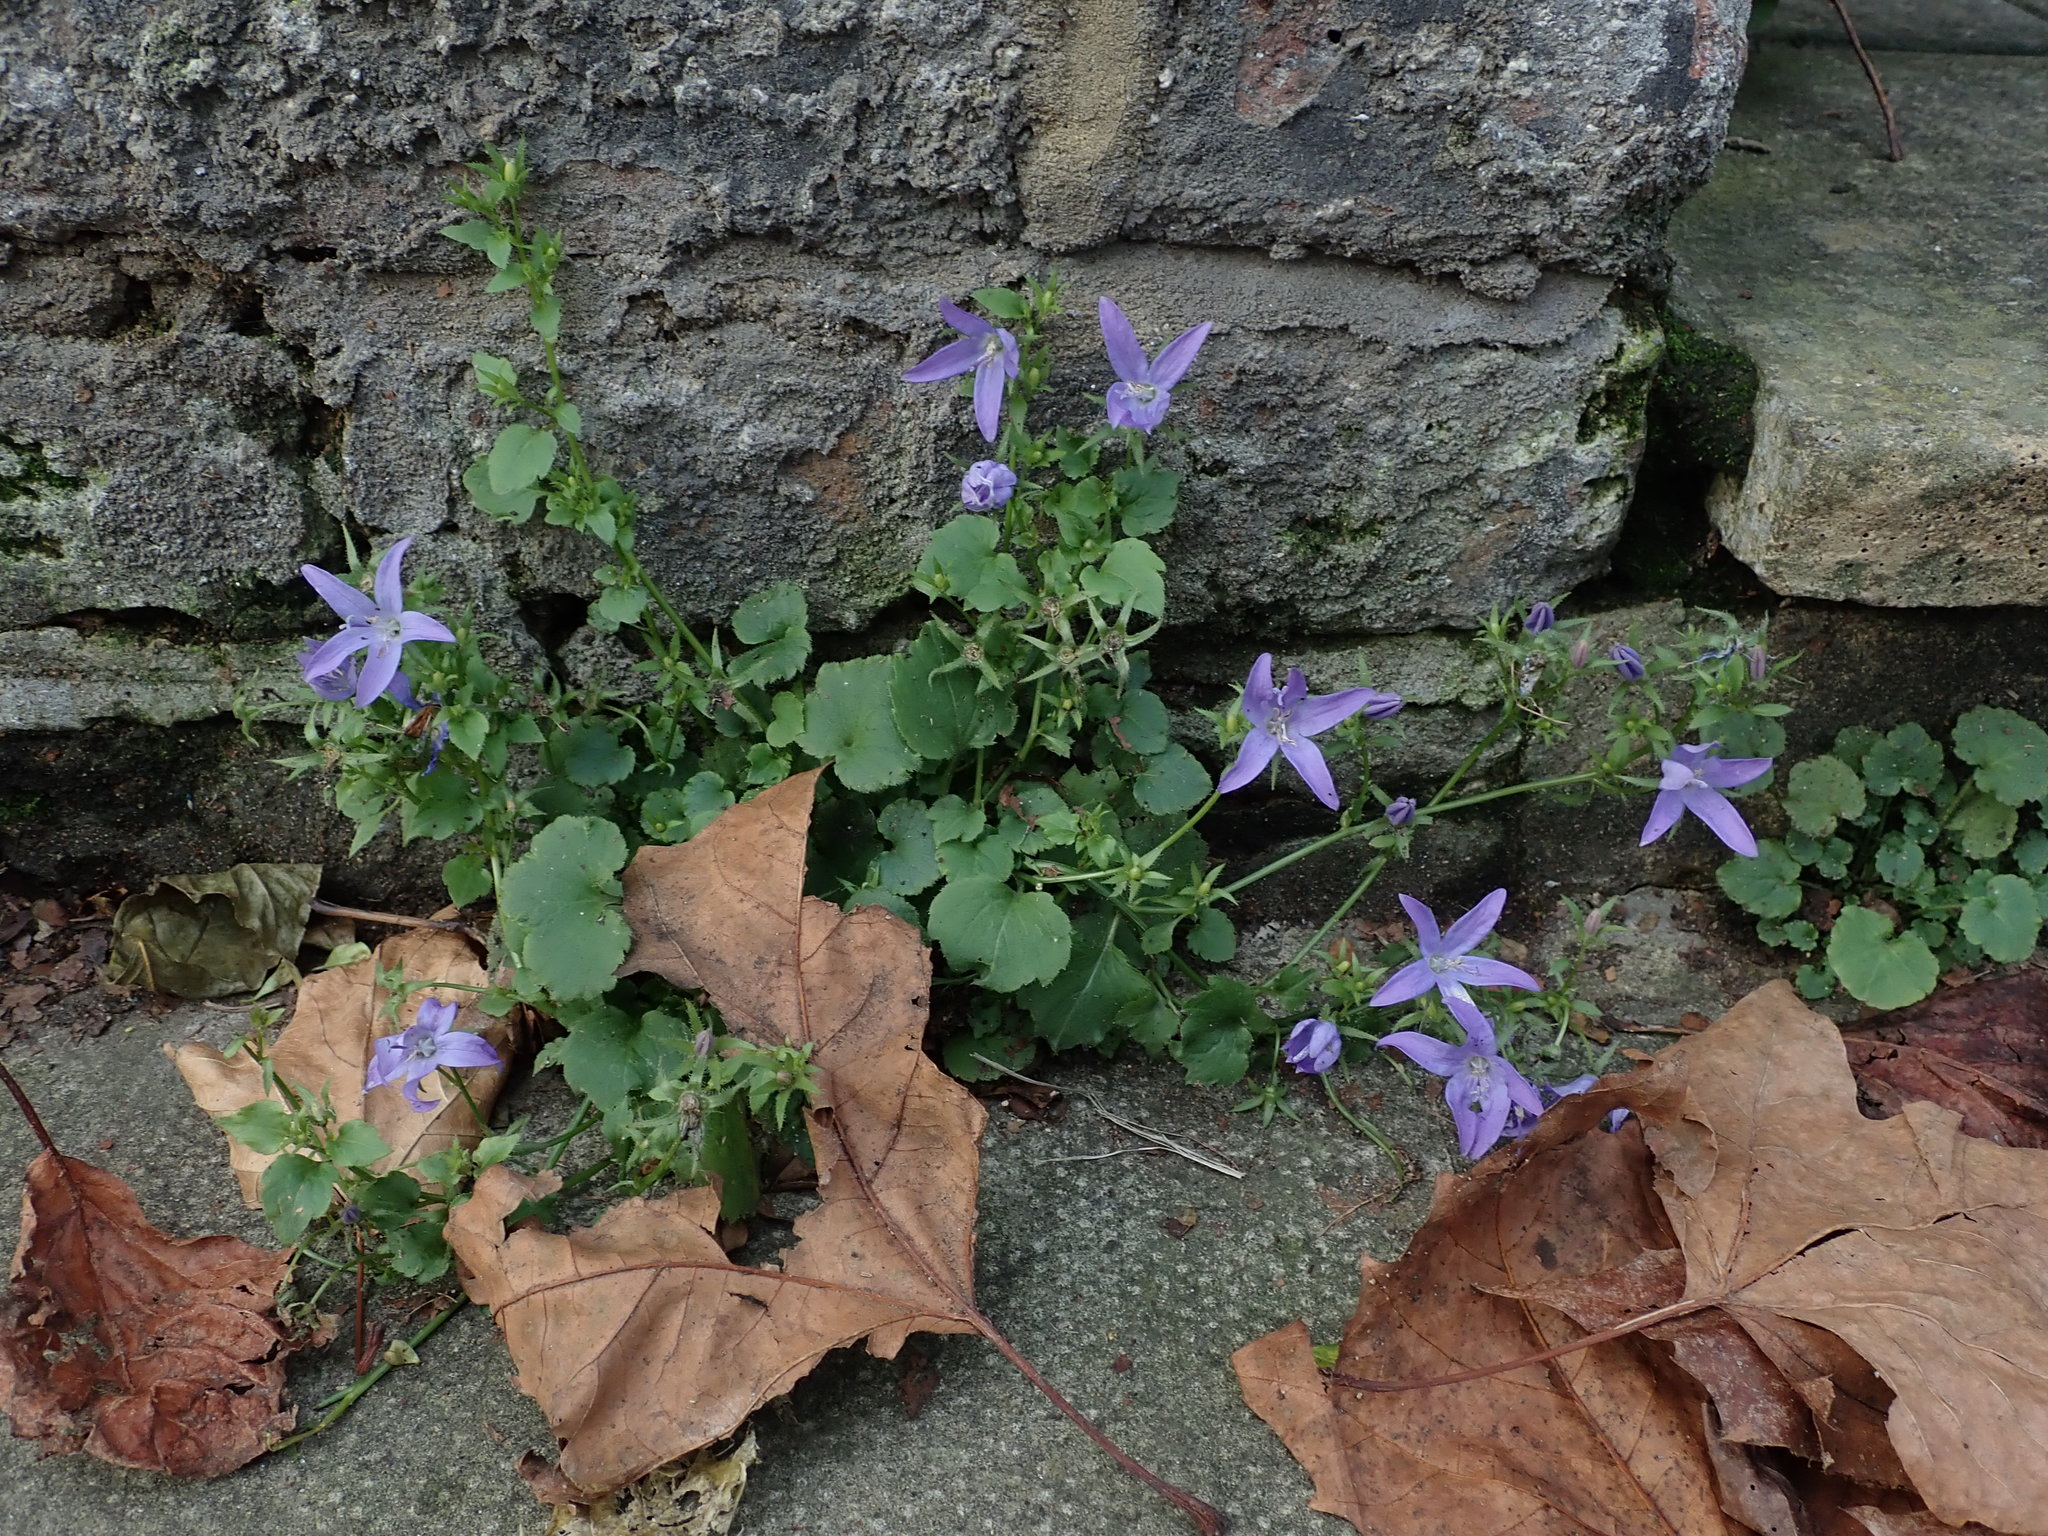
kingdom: Plantae
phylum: Tracheophyta
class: Magnoliopsida
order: Asterales
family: Campanulaceae
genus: Campanula
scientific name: Campanula poscharskyana
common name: Trailing bellflower
